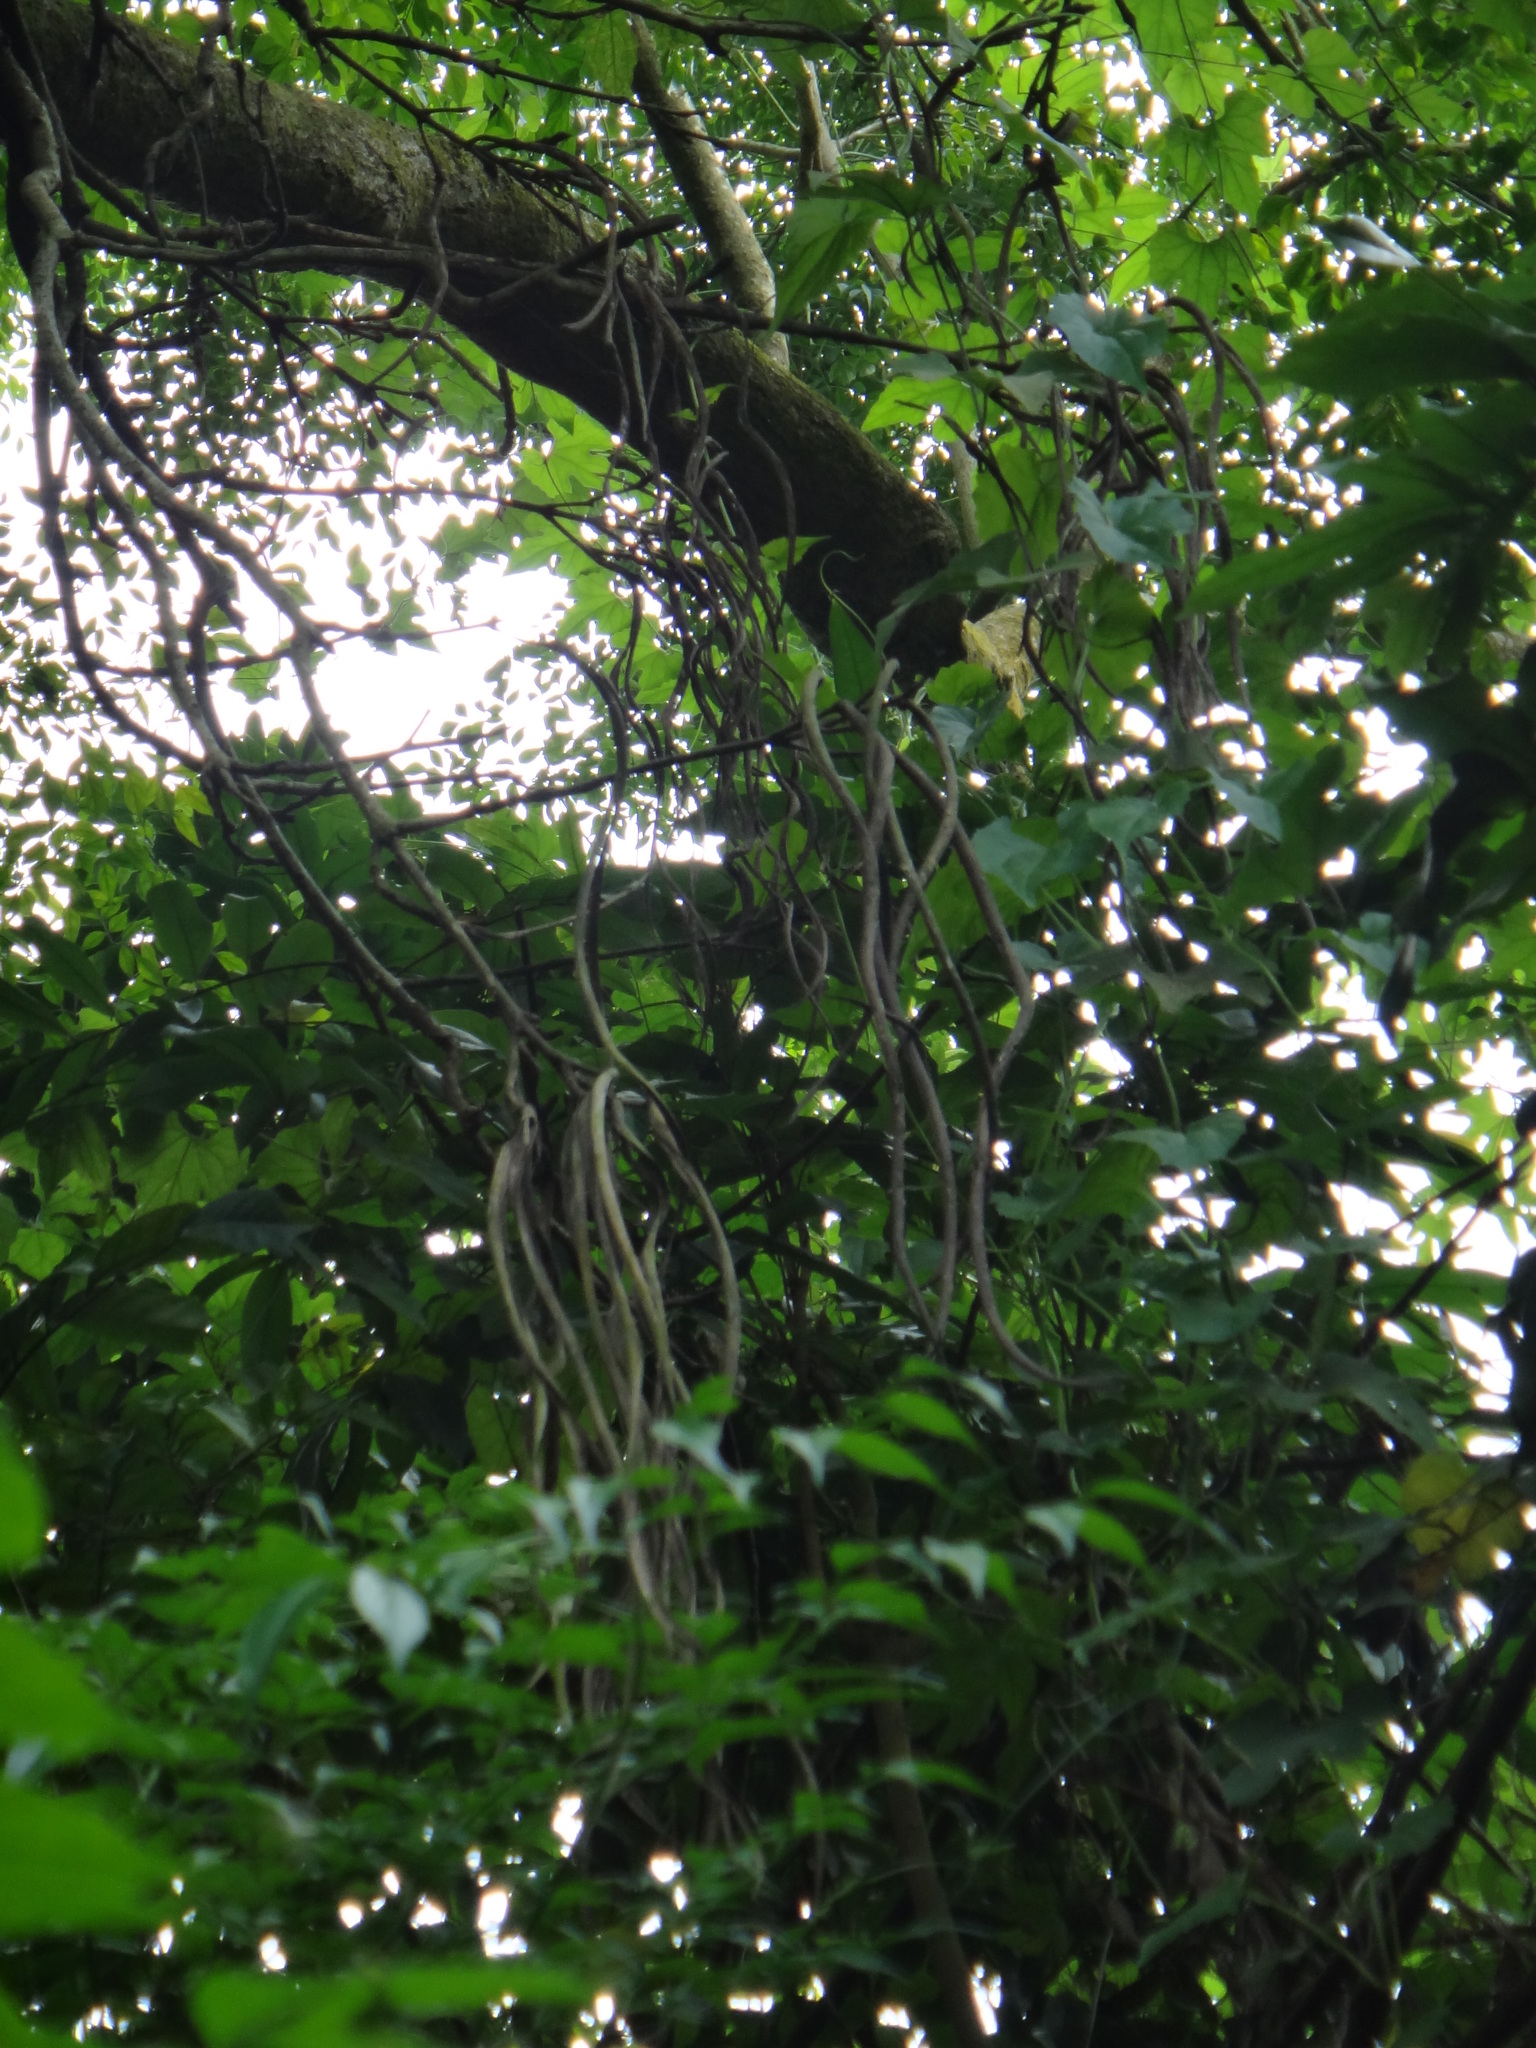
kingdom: Plantae
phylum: Tracheophyta
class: Magnoliopsida
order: Lamiales
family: Bignoniaceae
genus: Radermachera
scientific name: Radermachera sinica
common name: China doll plant
